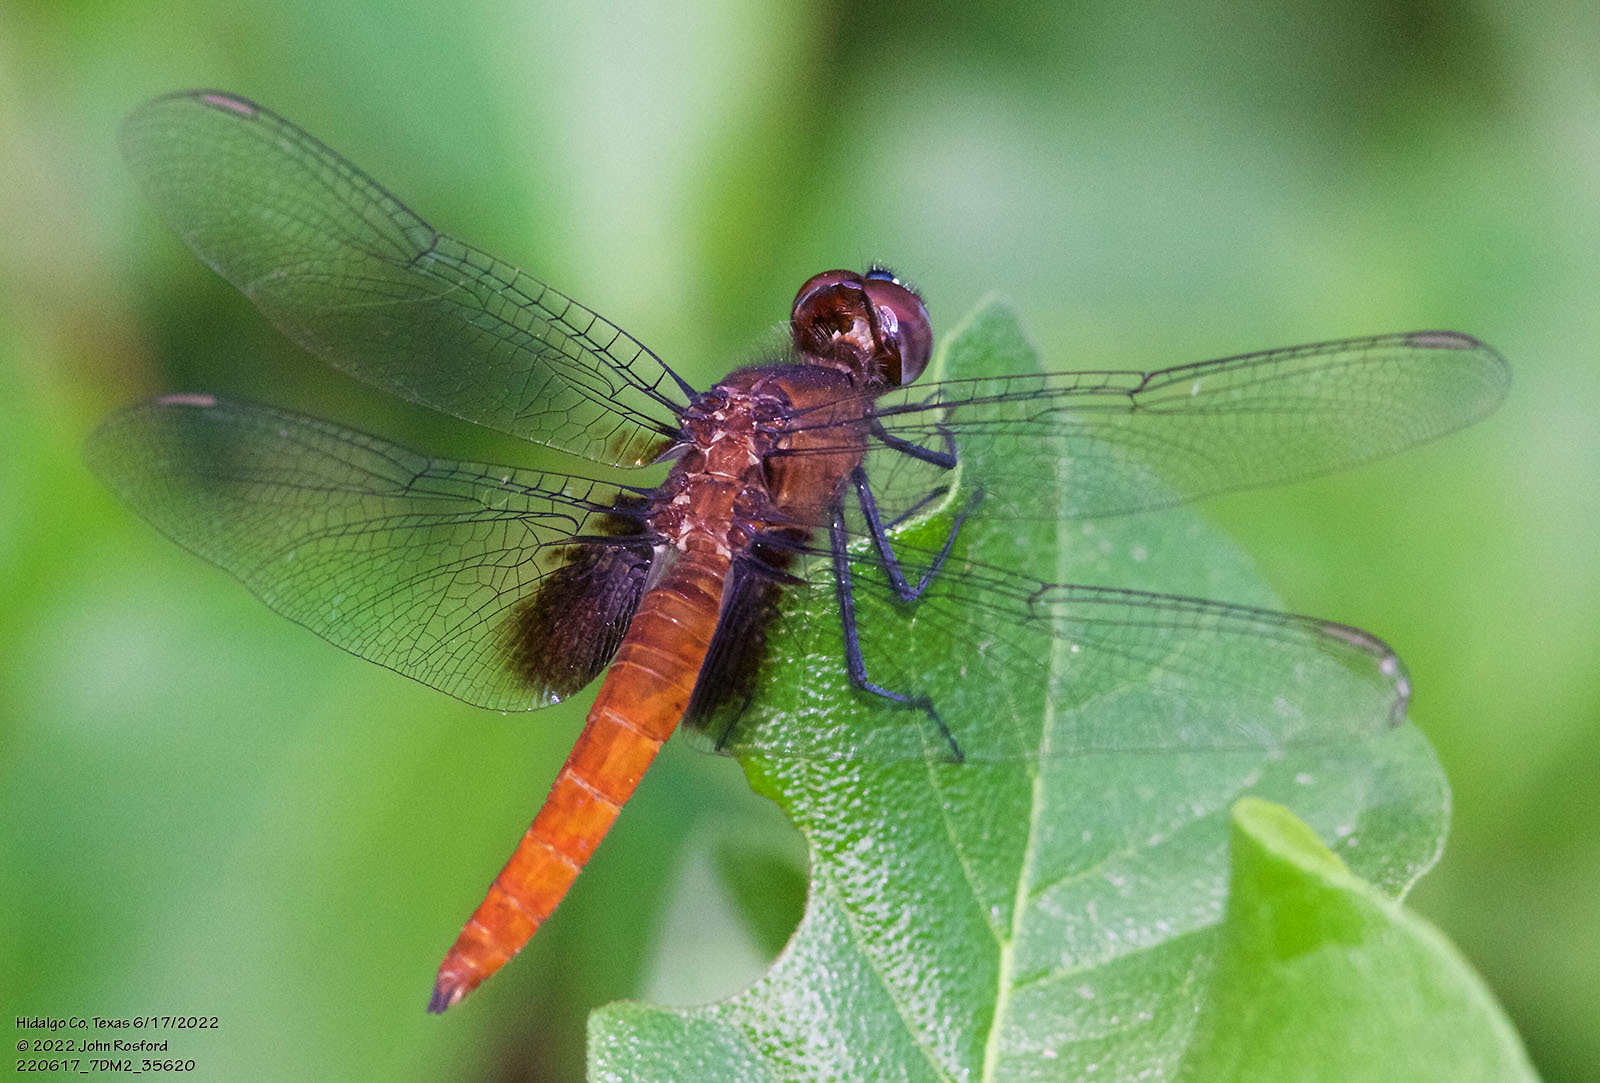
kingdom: Animalia
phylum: Arthropoda
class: Insecta
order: Odonata
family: Libellulidae
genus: Planiplax
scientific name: Planiplax sanguiniventris
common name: Mexican scarlet-tail
